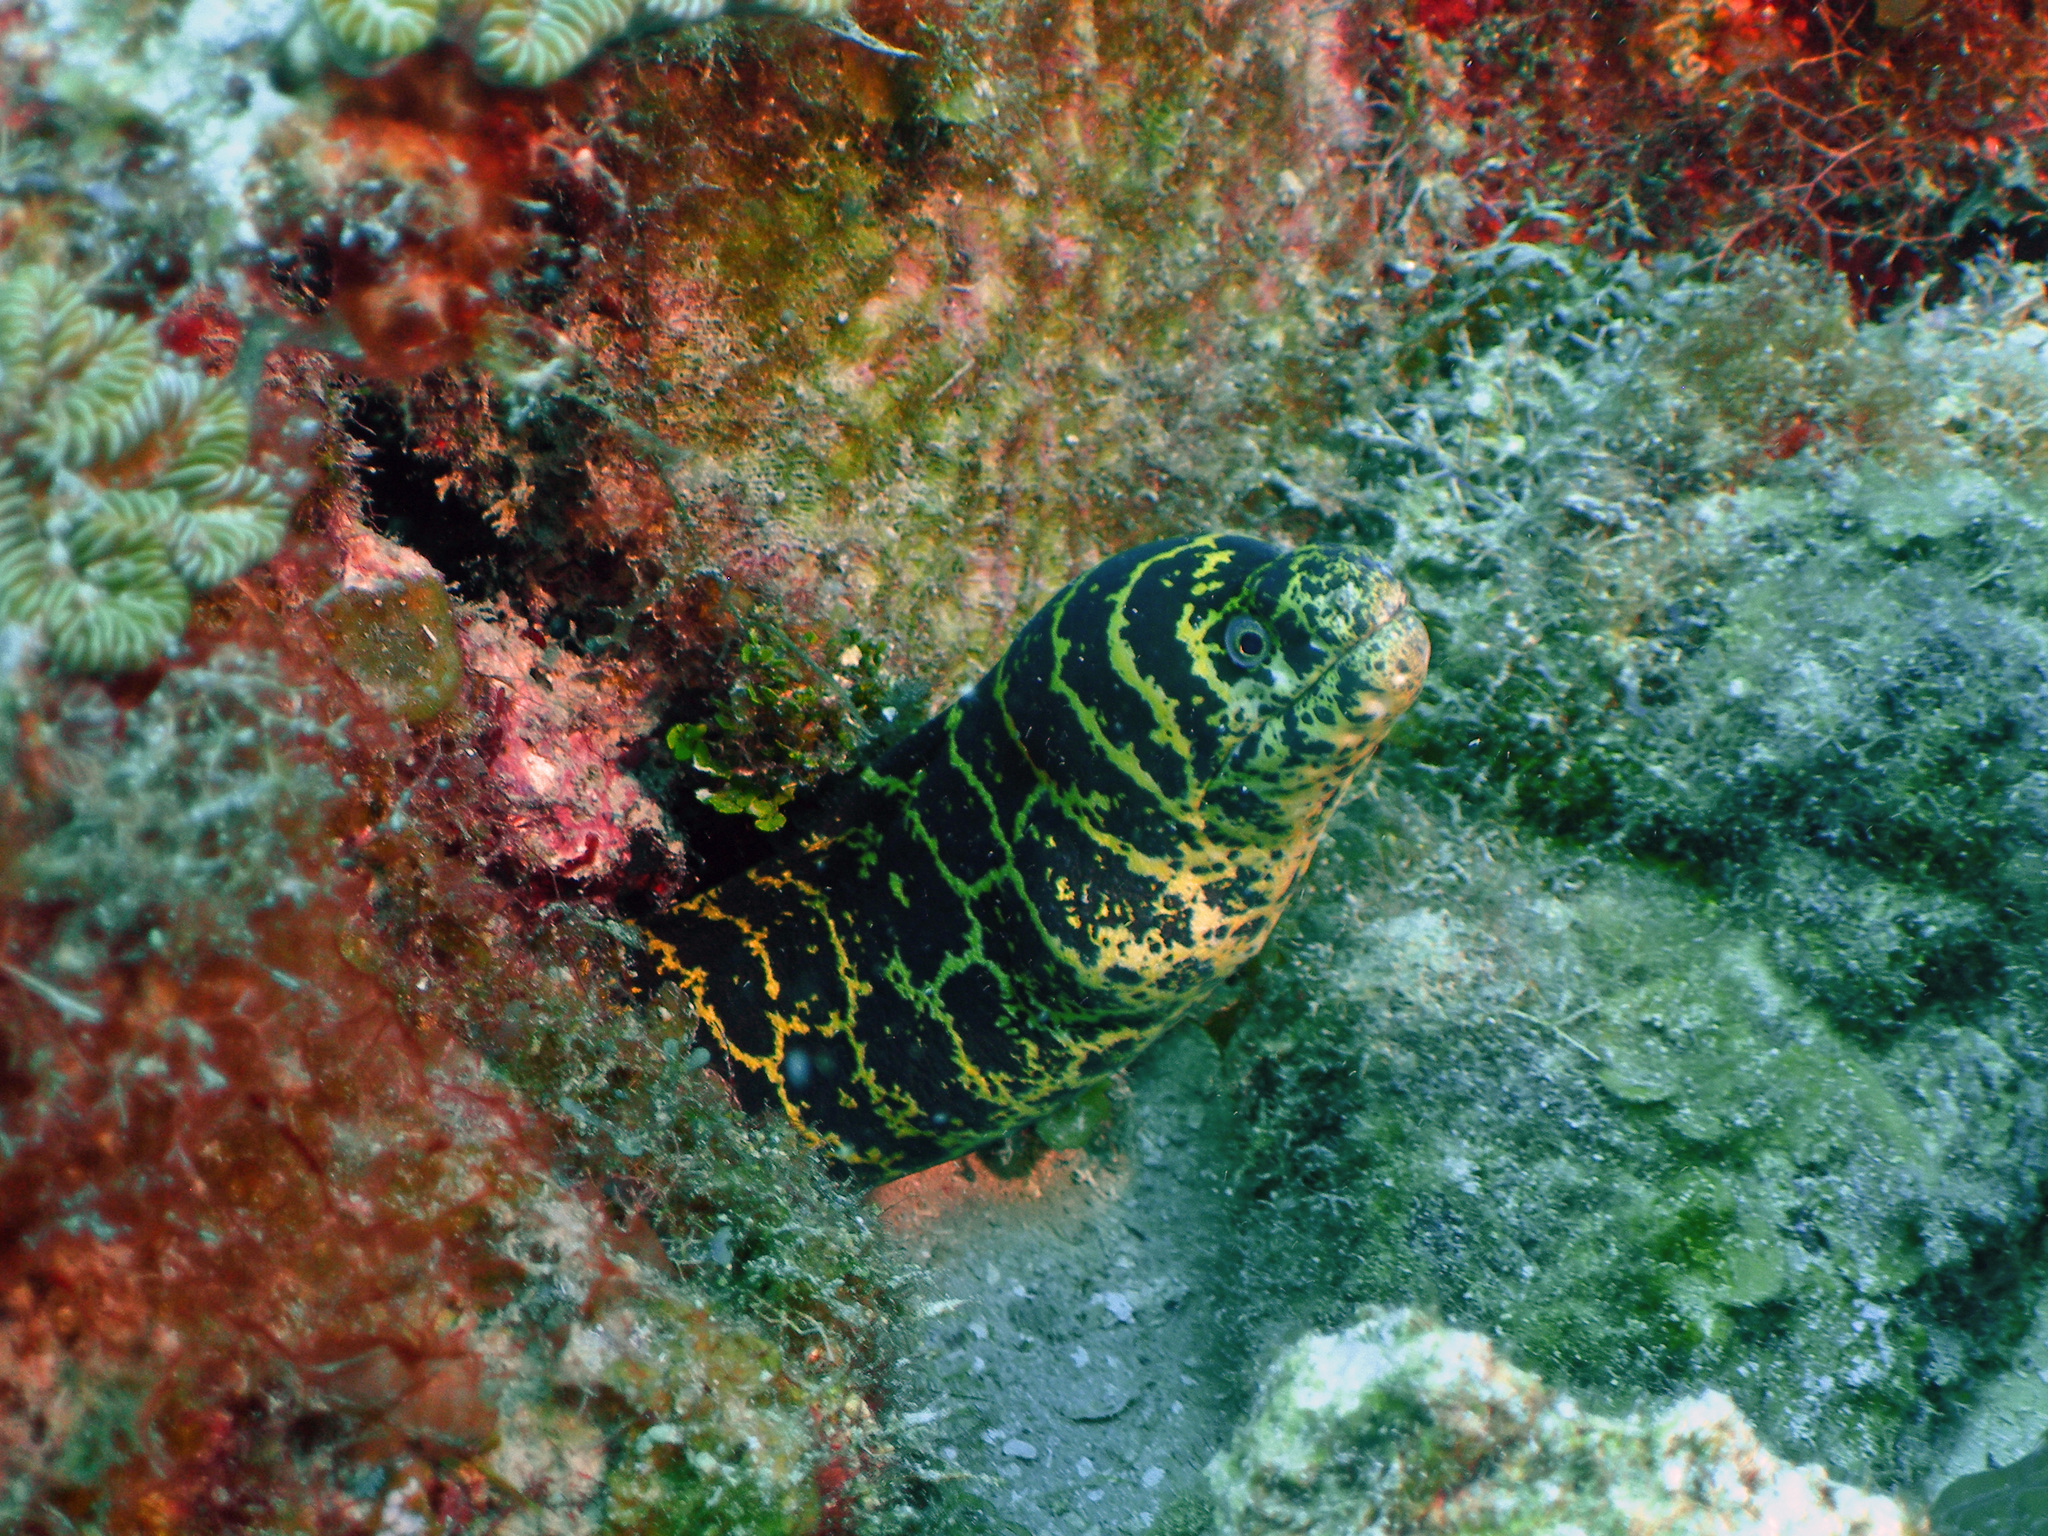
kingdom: Animalia
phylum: Chordata
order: Anguilliformes
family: Muraenidae
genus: Echidna
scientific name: Echidna catenata
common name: Chain moray
